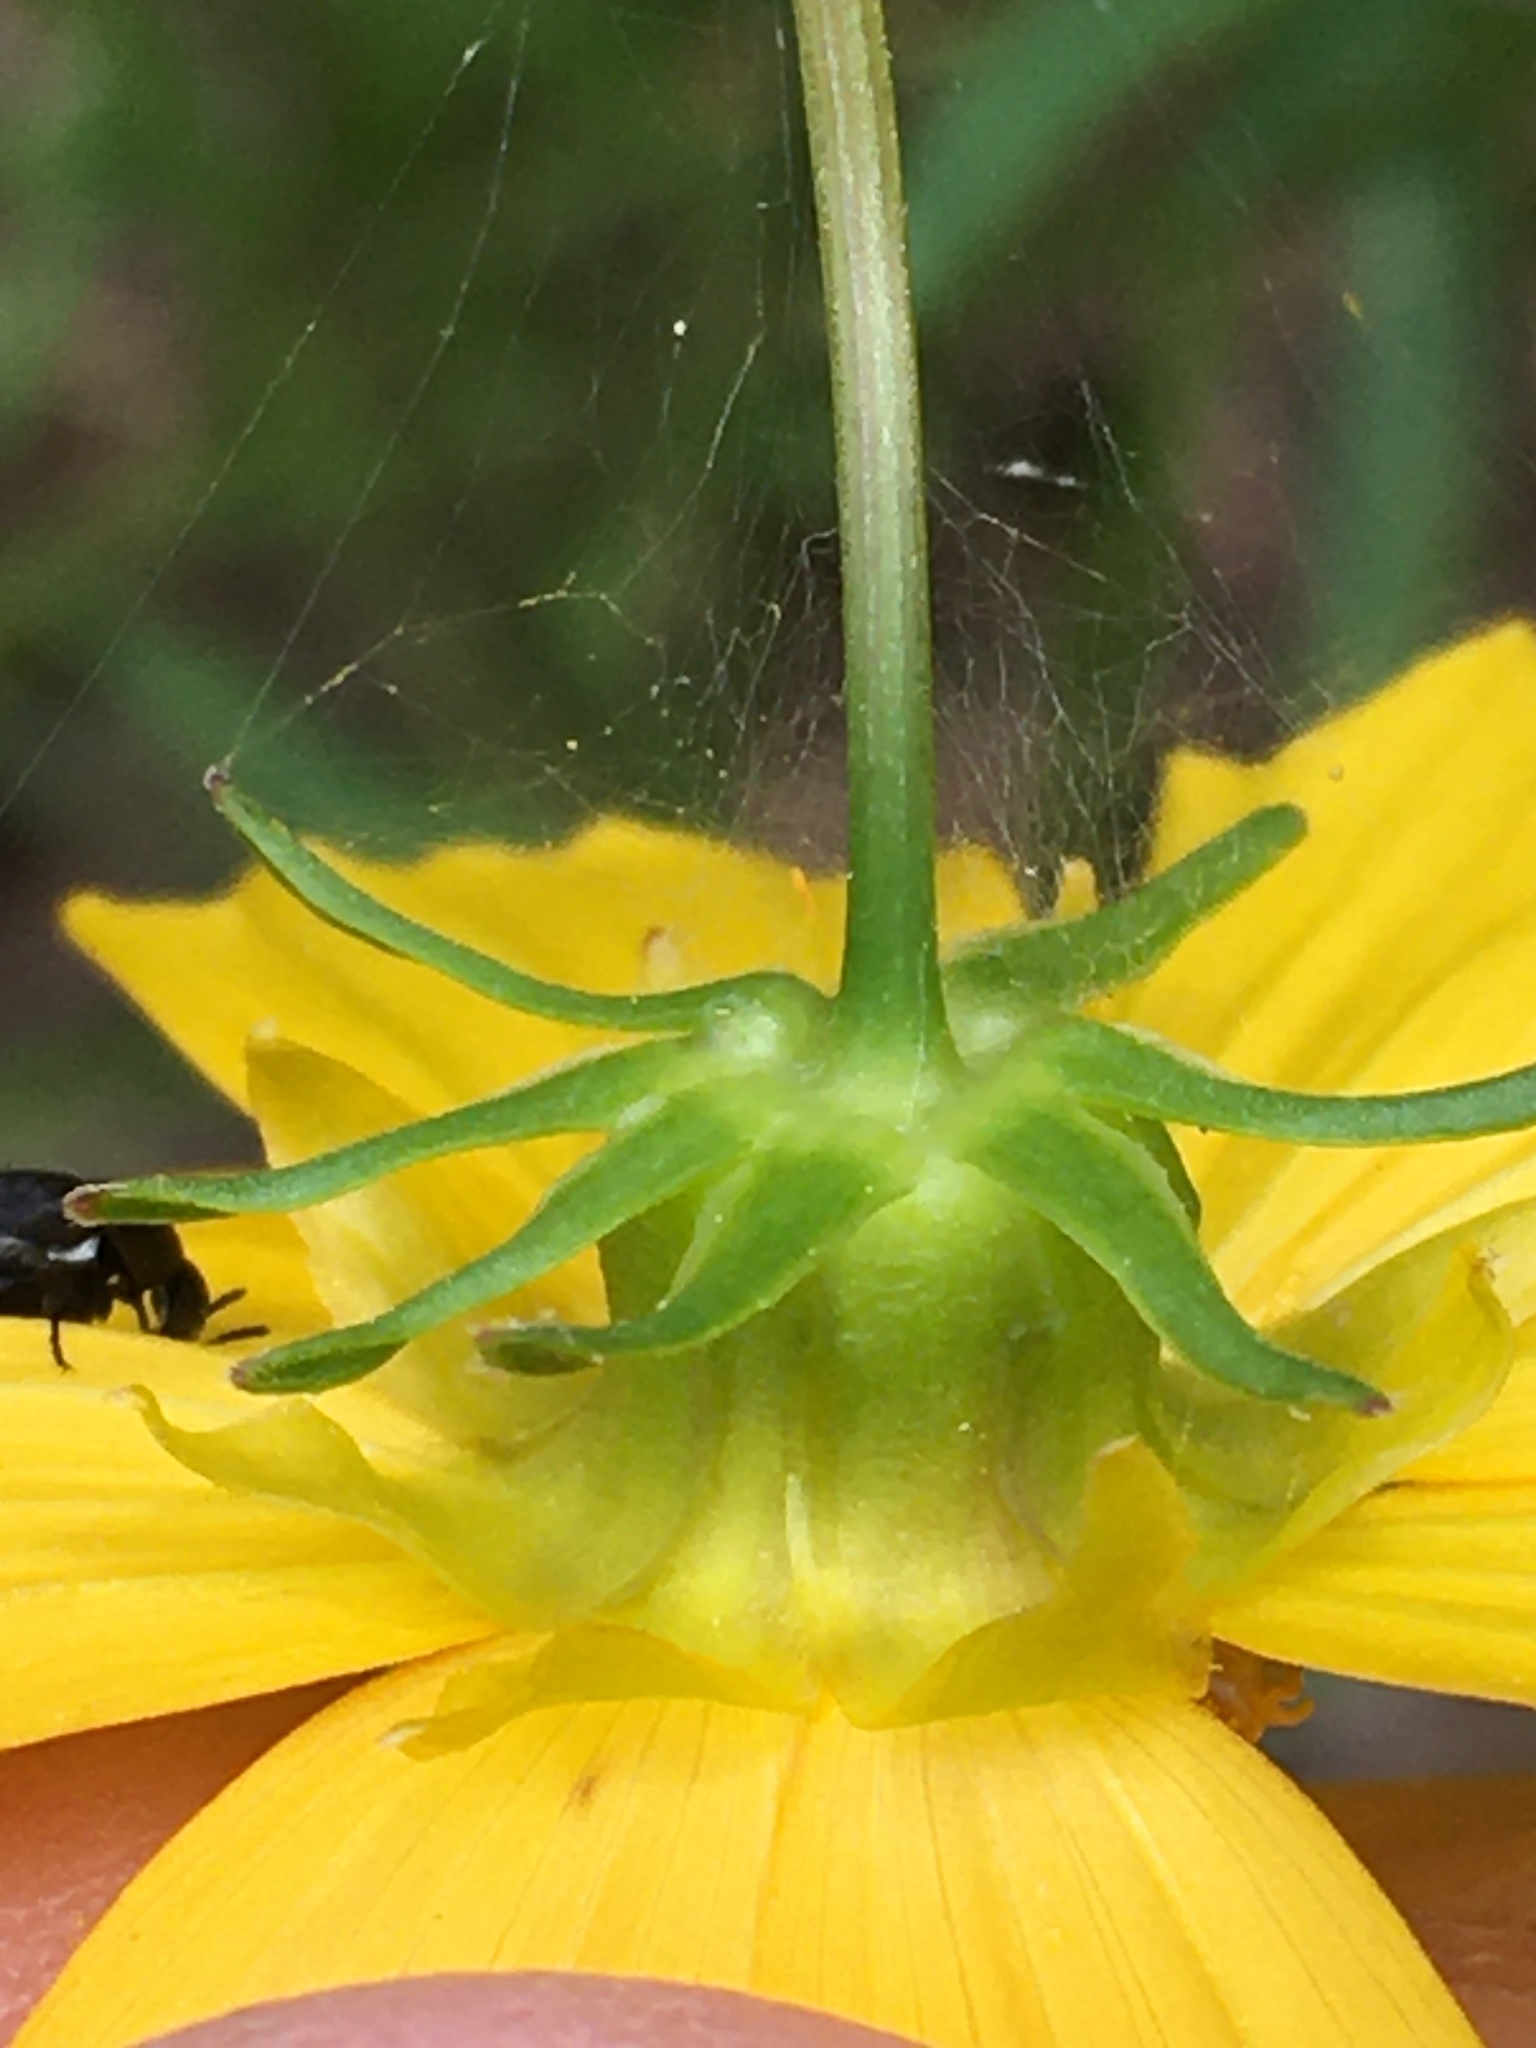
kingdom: Plantae
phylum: Tracheophyta
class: Magnoliopsida
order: Asterales
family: Asteraceae
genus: Coreopsis
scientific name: Coreopsis lanceolata
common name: Garden coreopsis
